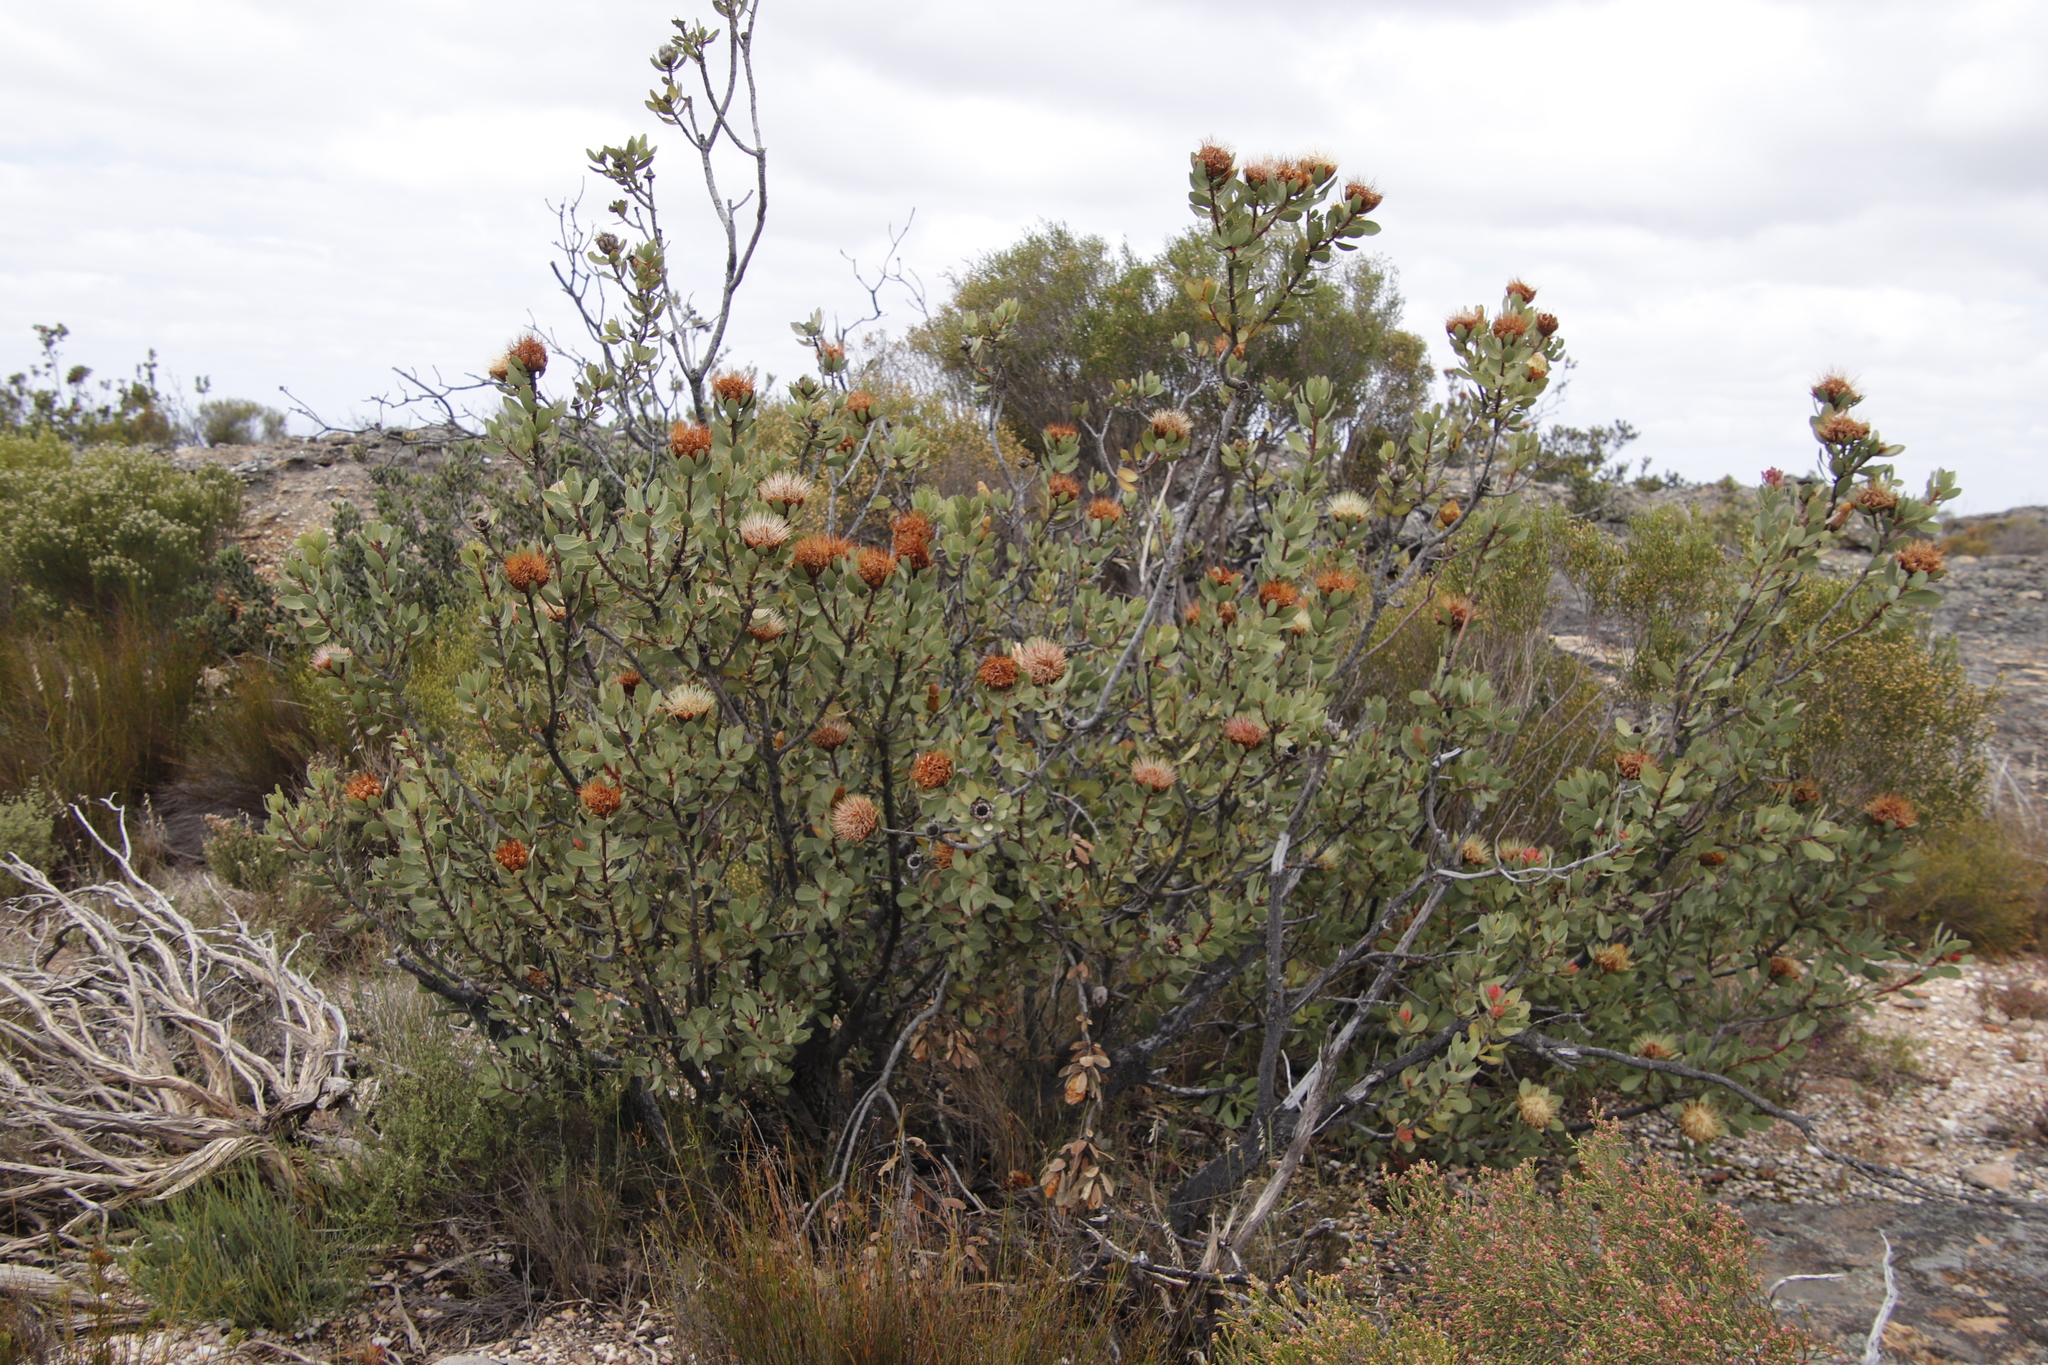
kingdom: Plantae
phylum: Tracheophyta
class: Magnoliopsida
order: Proteales
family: Proteaceae
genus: Protea
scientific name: Protea glabra
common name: Chestnut sugarbush
